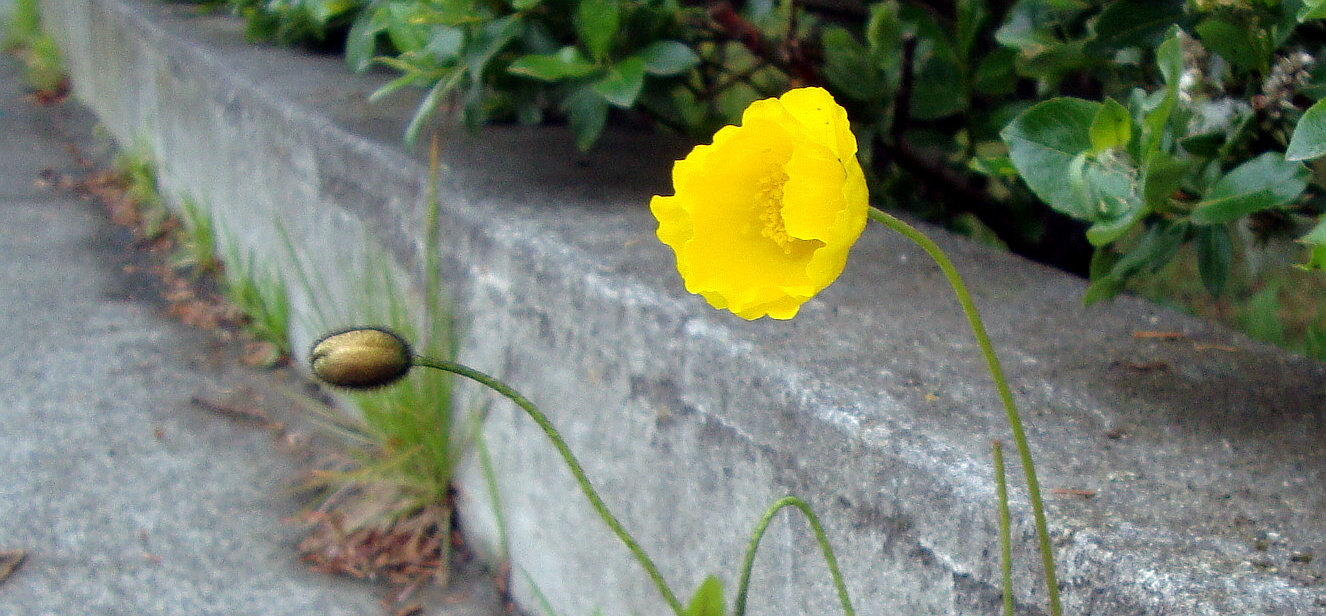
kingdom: Plantae
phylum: Tracheophyta
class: Magnoliopsida
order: Ranunculales
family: Papaveraceae
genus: Papaver
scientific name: Papaver radicatum
